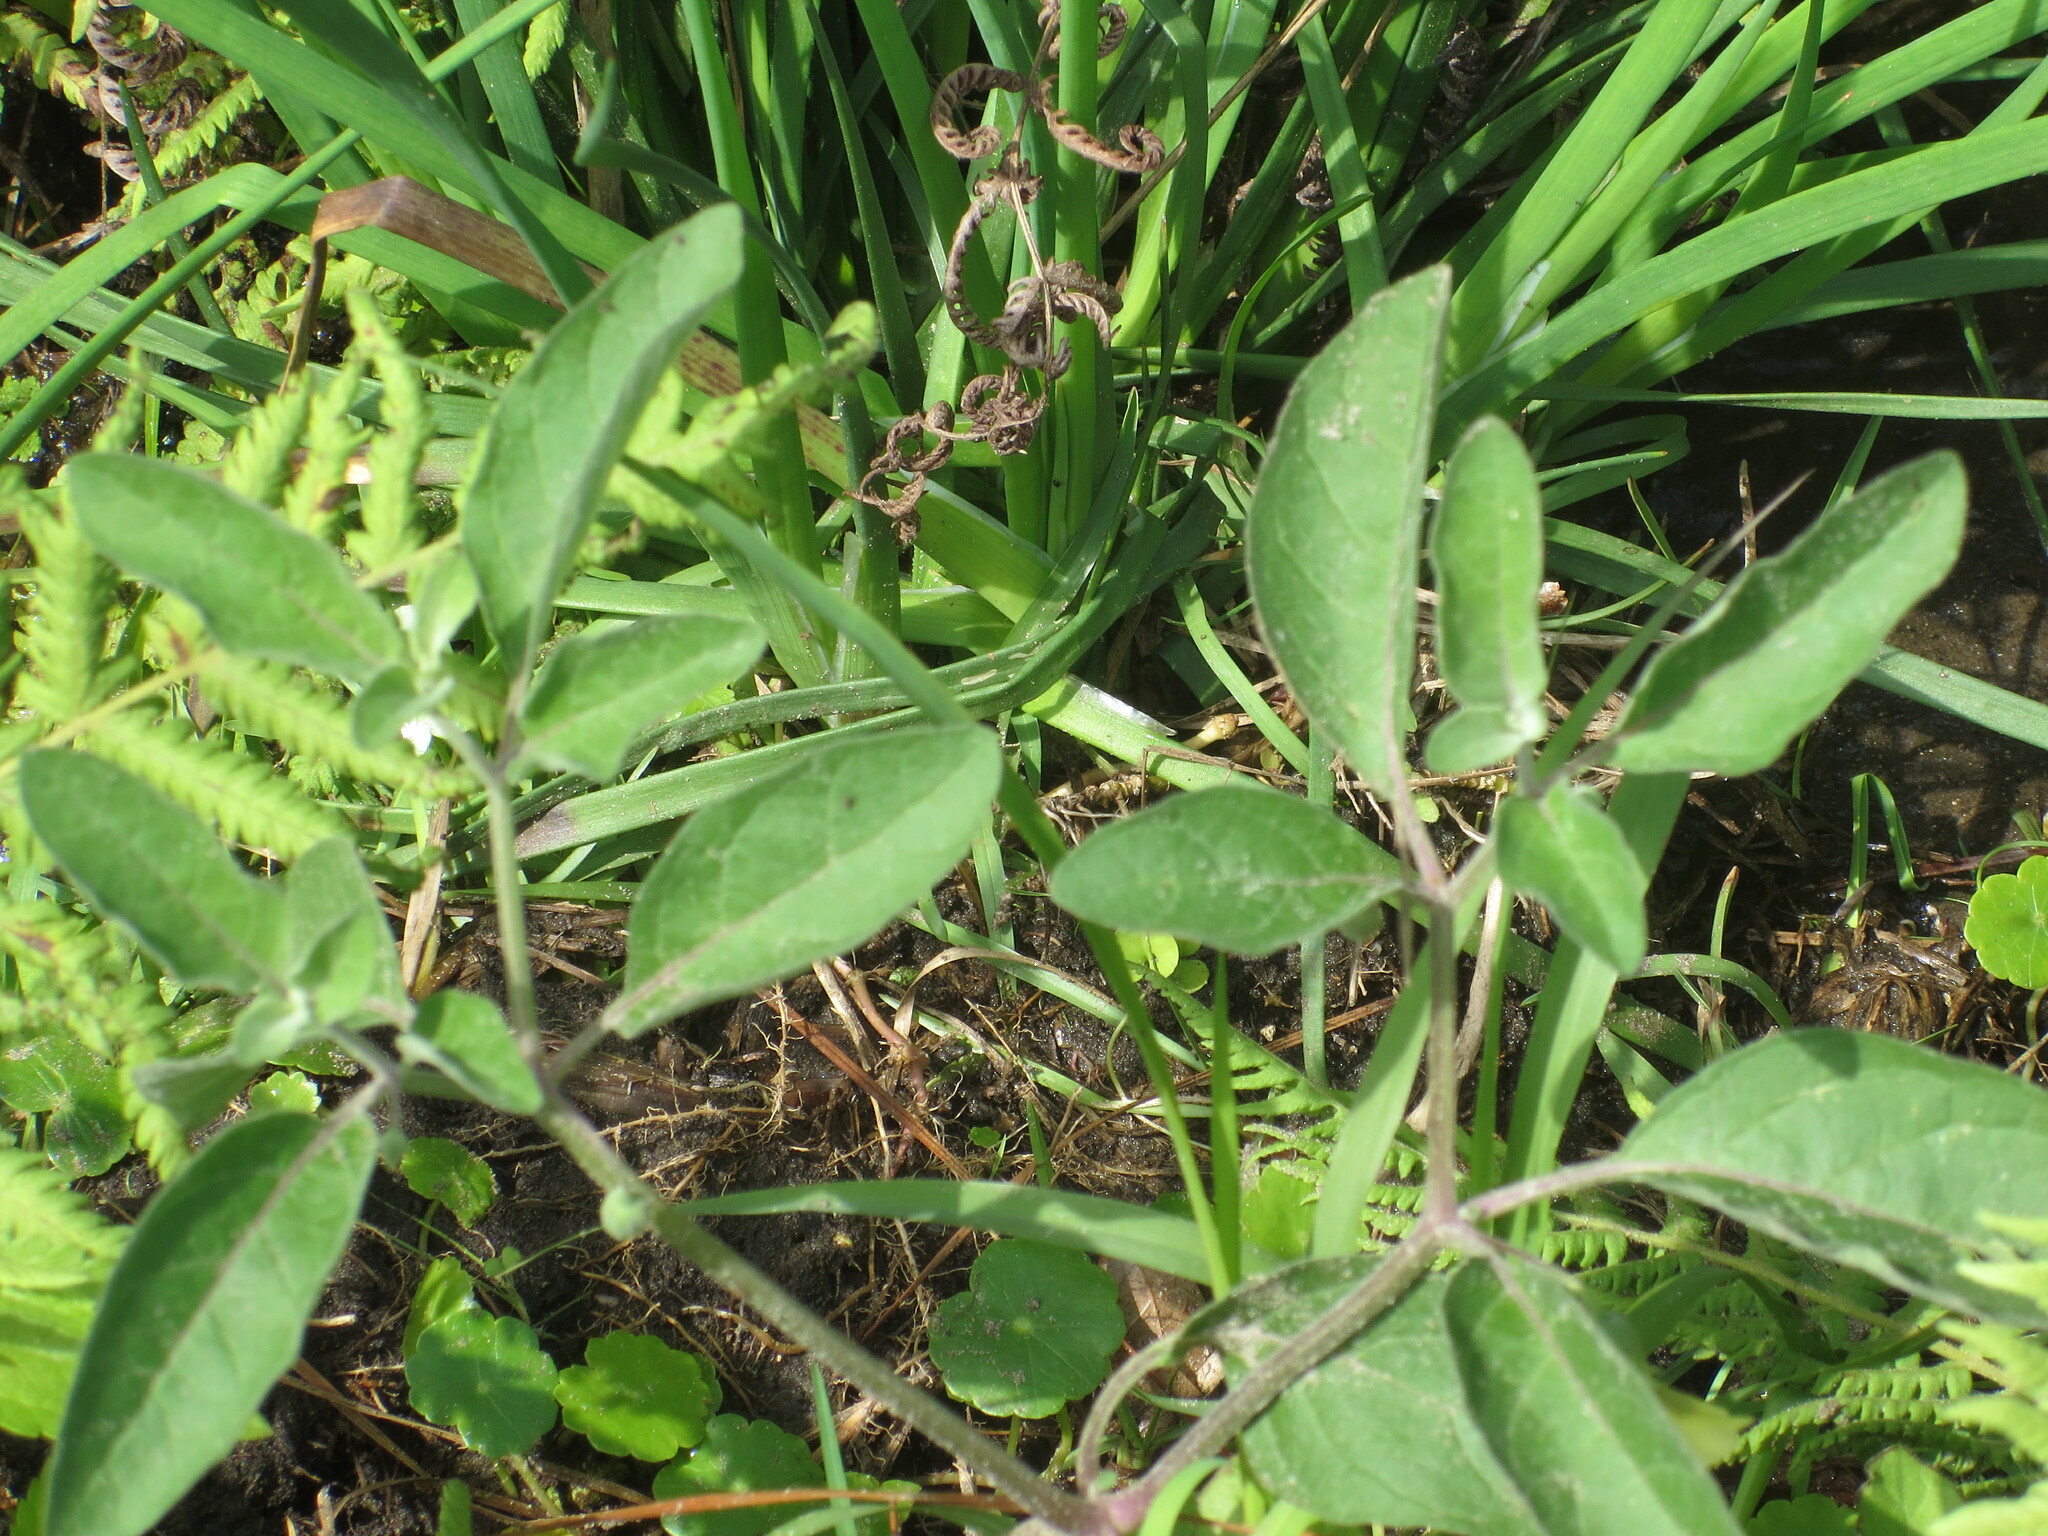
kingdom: Plantae
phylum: Tracheophyta
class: Magnoliopsida
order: Solanales
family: Solanaceae
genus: Physalis
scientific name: Physalis walteri
